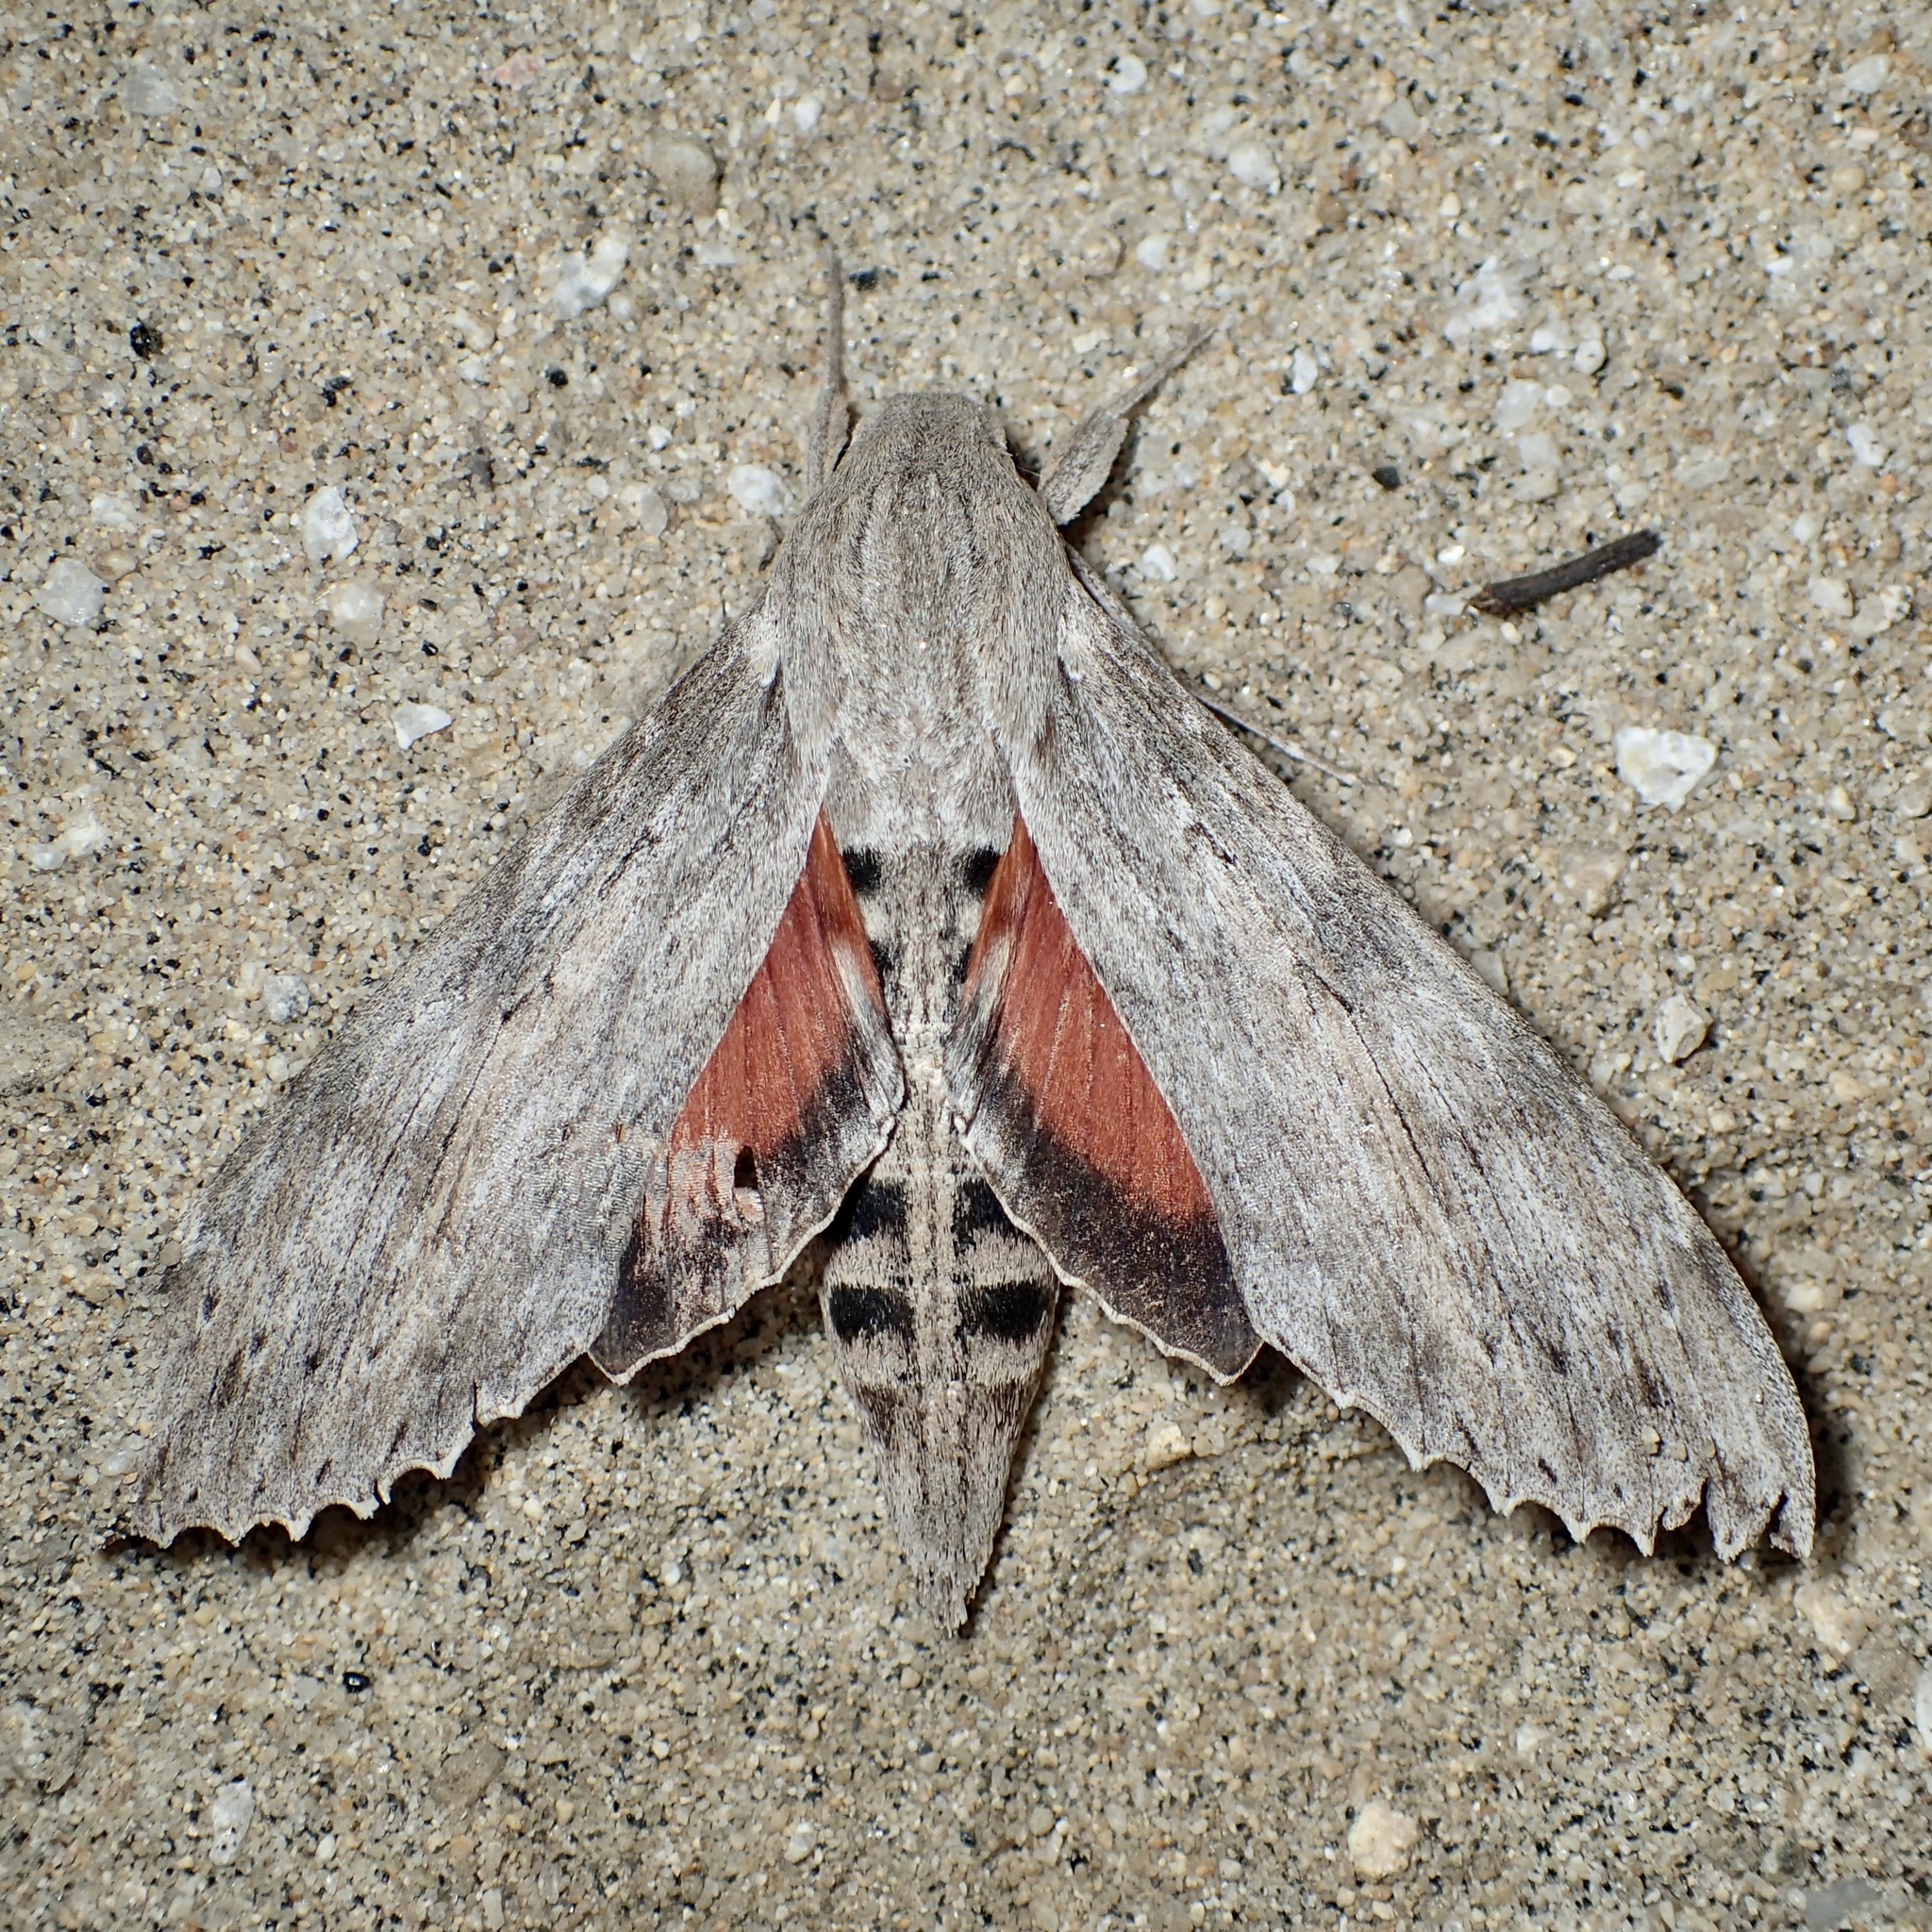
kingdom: Animalia
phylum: Arthropoda
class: Insecta
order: Lepidoptera
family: Sphingidae
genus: Erinnyis
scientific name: Erinnyis ello
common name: Ello sphinx
